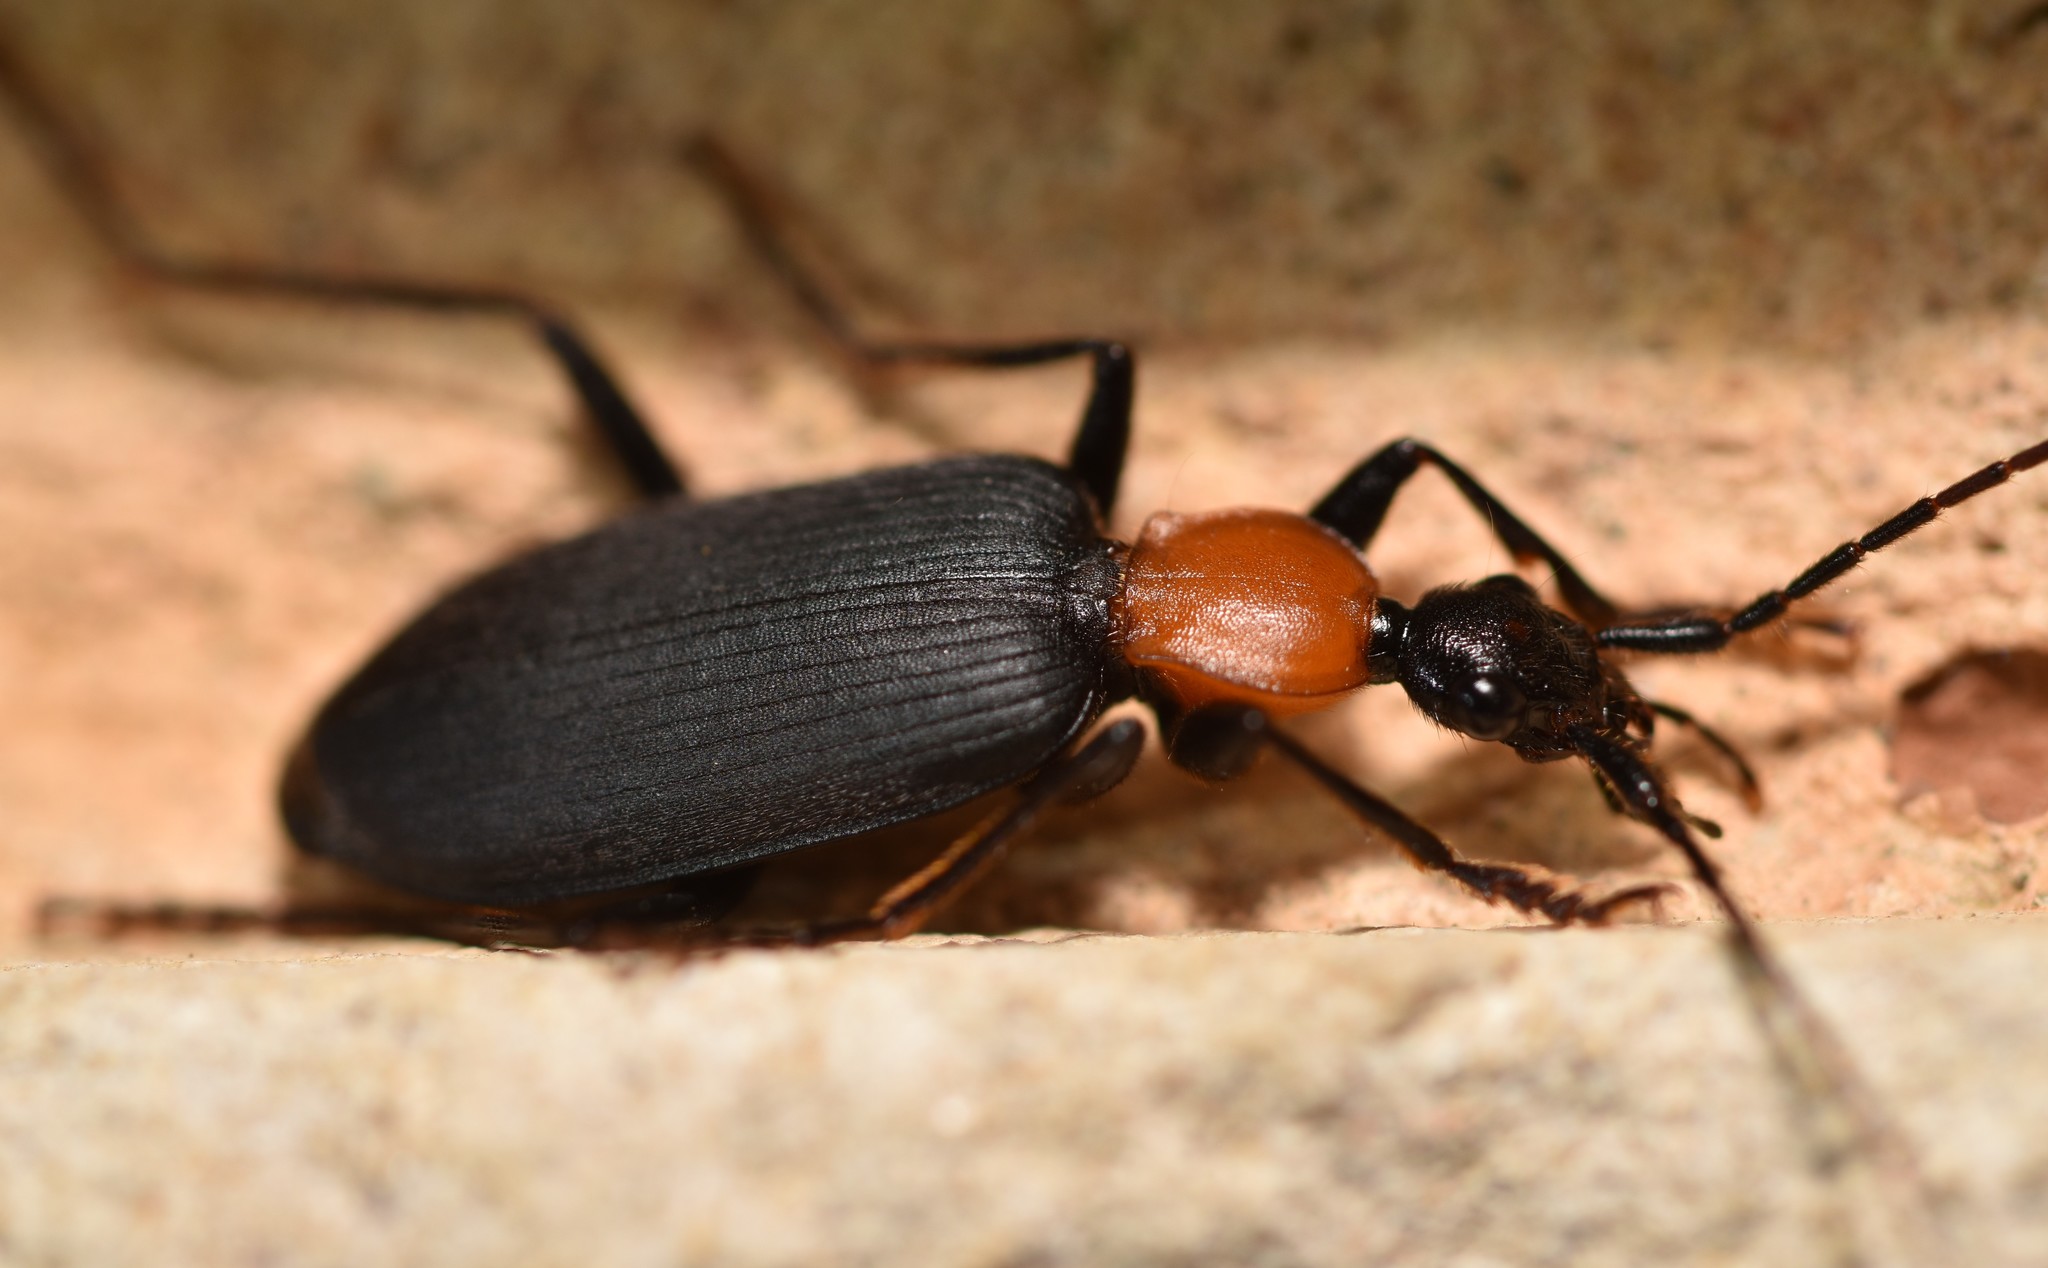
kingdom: Animalia
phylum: Arthropoda
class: Insecta
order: Coleoptera
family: Carabidae
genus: Galerita
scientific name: Galerita mexicana
